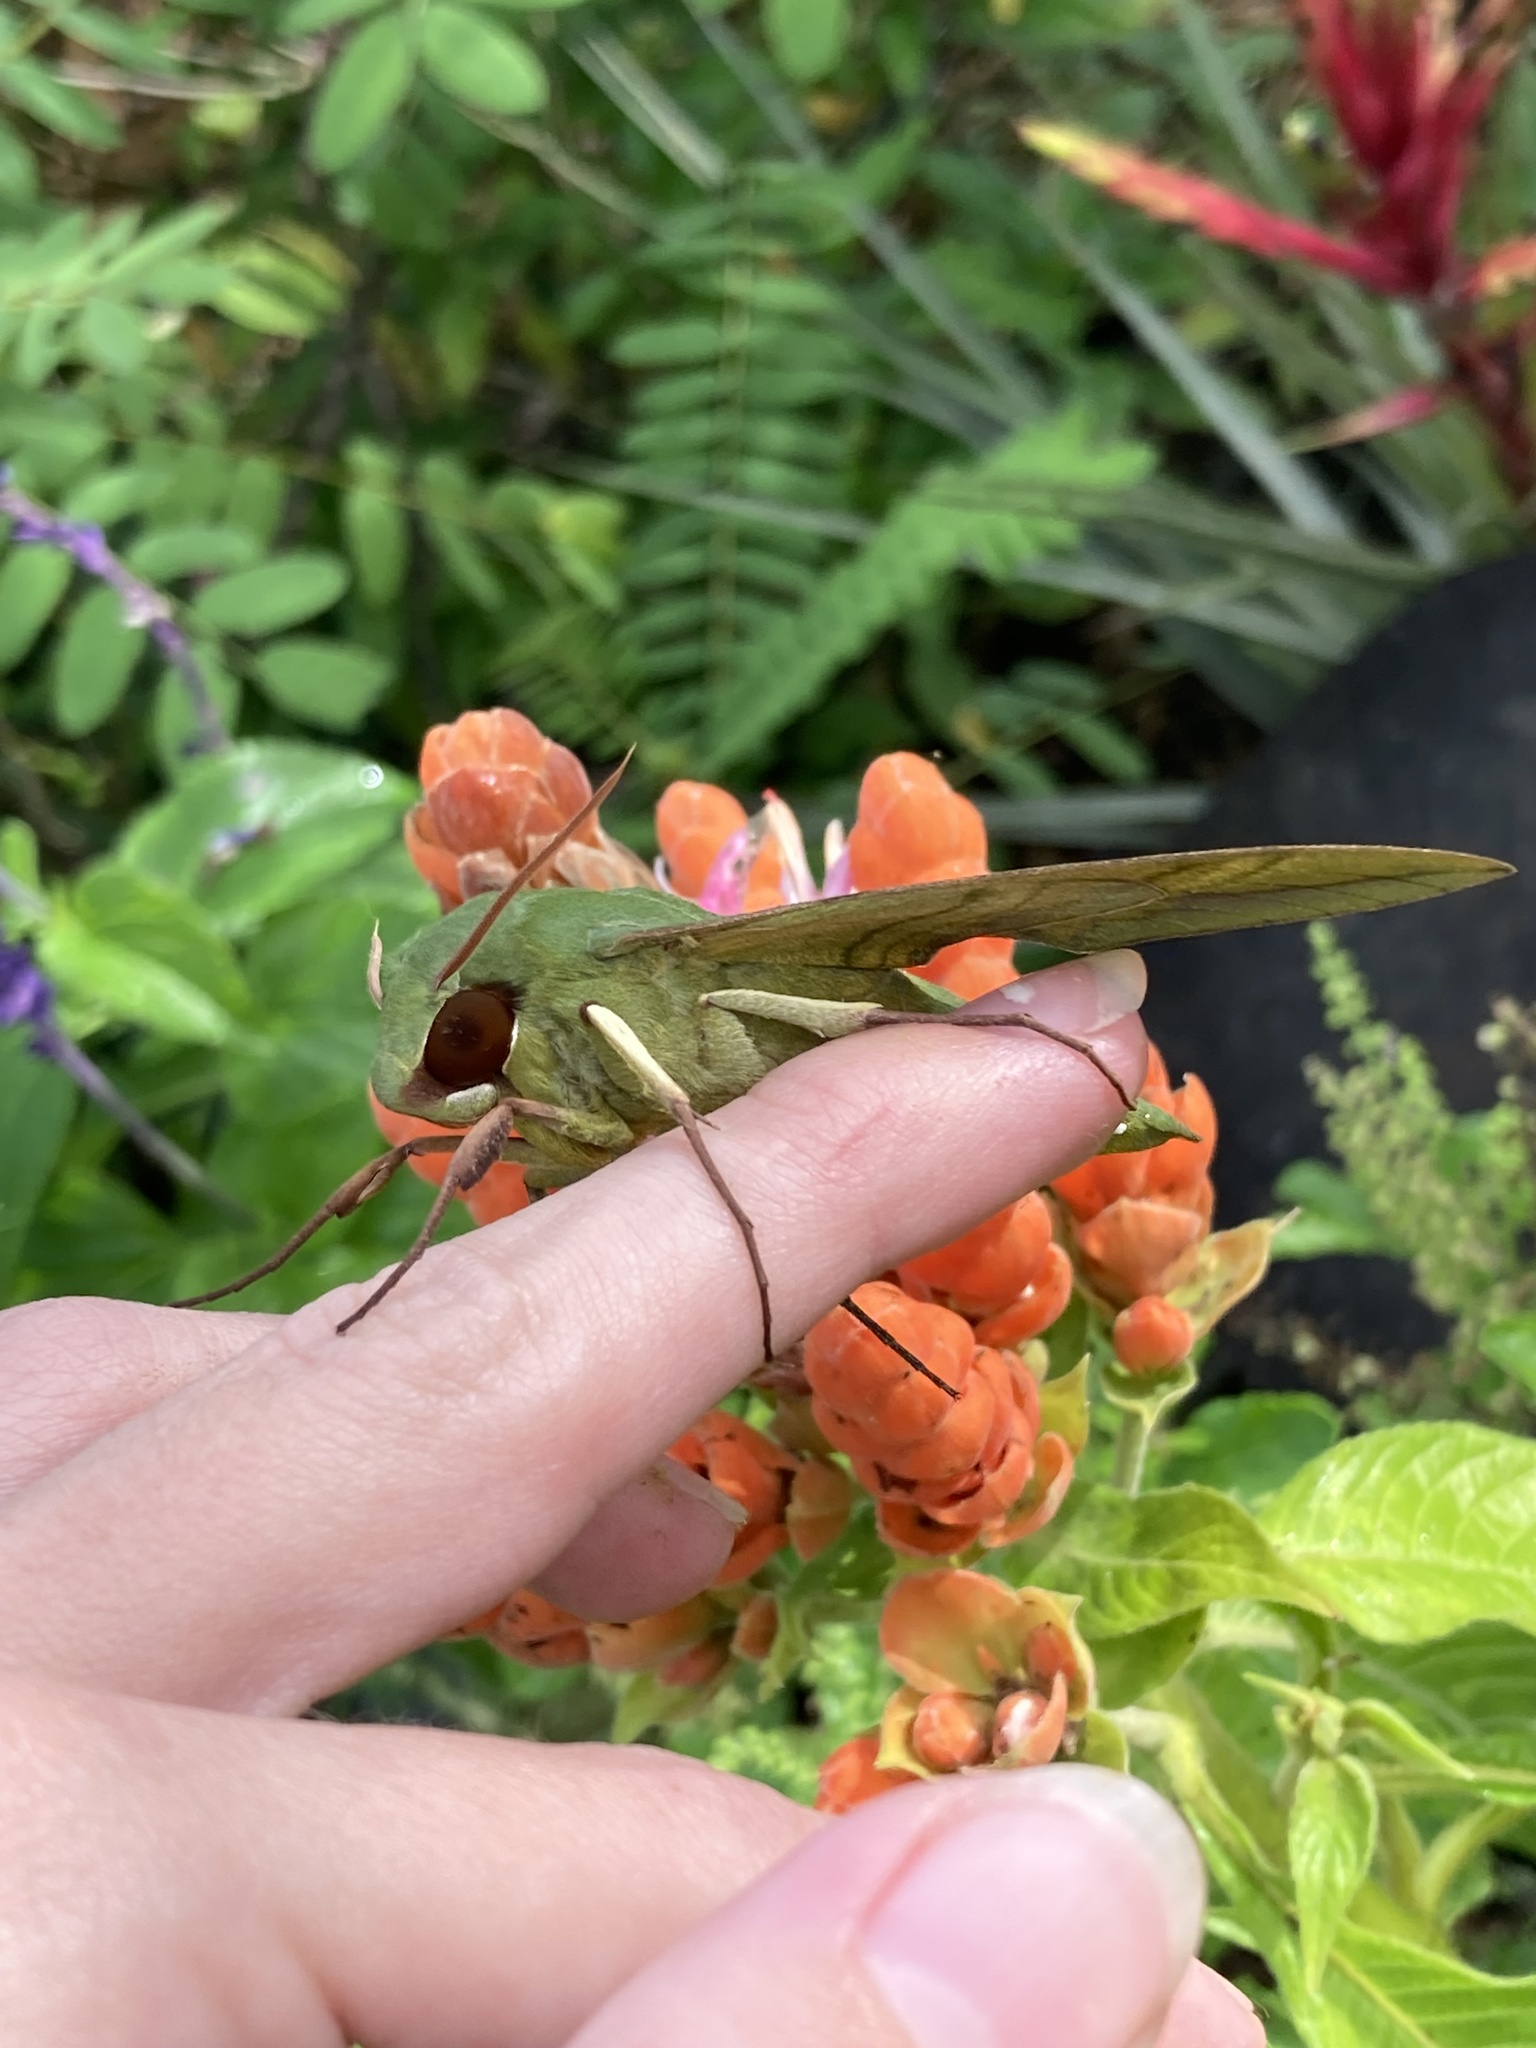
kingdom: Animalia
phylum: Arthropoda
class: Insecta
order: Lepidoptera
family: Sphingidae
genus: Eumorpha
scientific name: Eumorpha labruscae
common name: Gaudy sphinx
